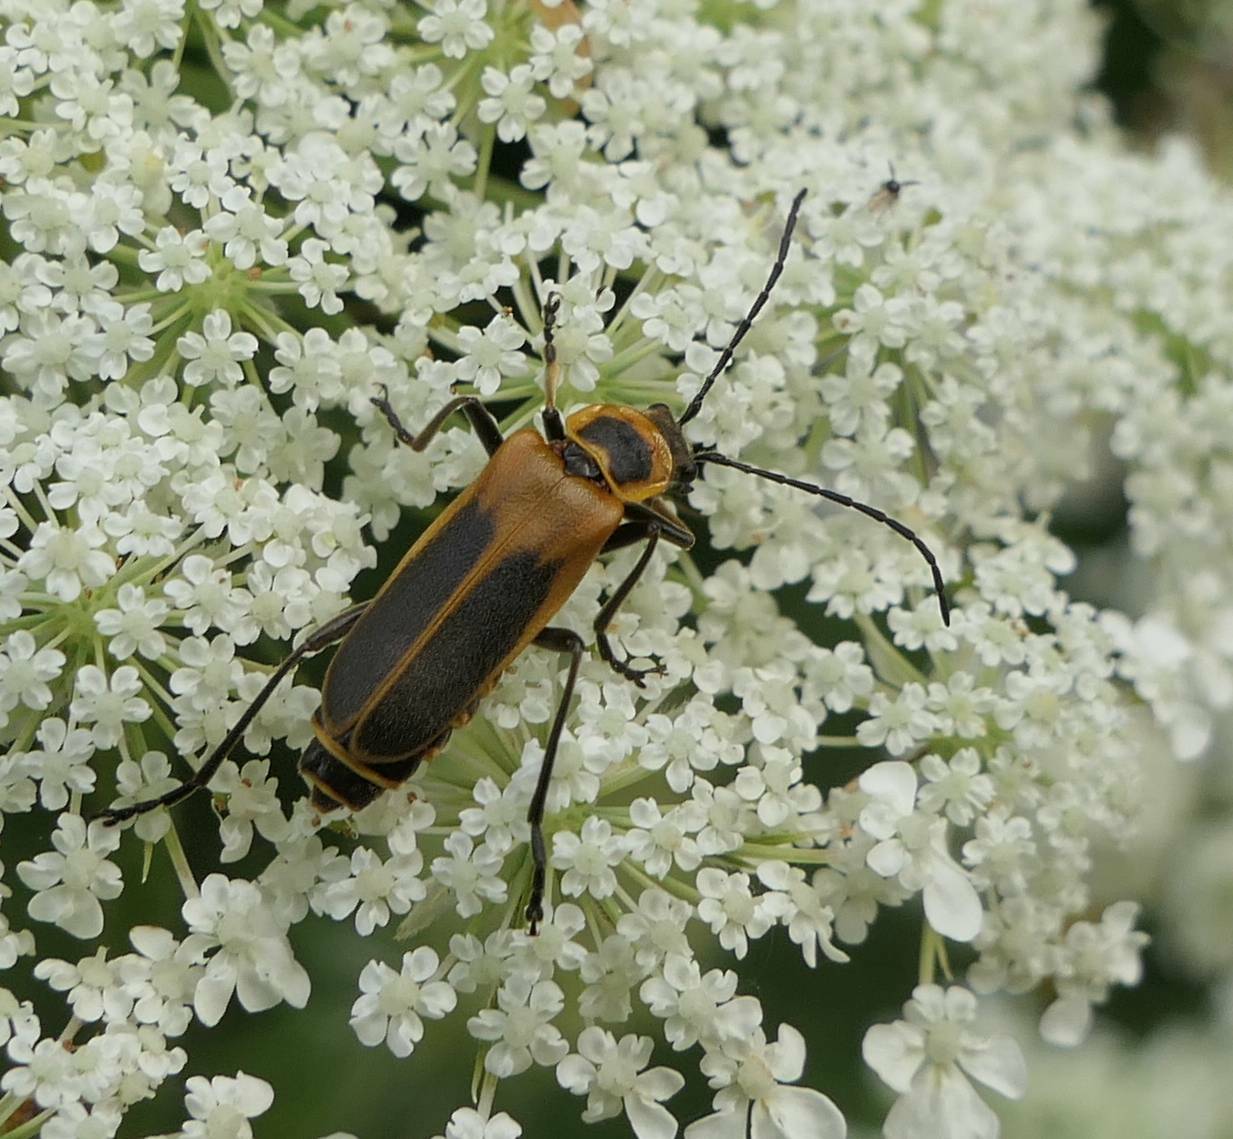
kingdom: Animalia
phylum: Arthropoda
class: Insecta
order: Coleoptera
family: Cantharidae
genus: Chauliognathus
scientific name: Chauliognathus pensylvanicus
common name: Goldenrod soldier beetle
